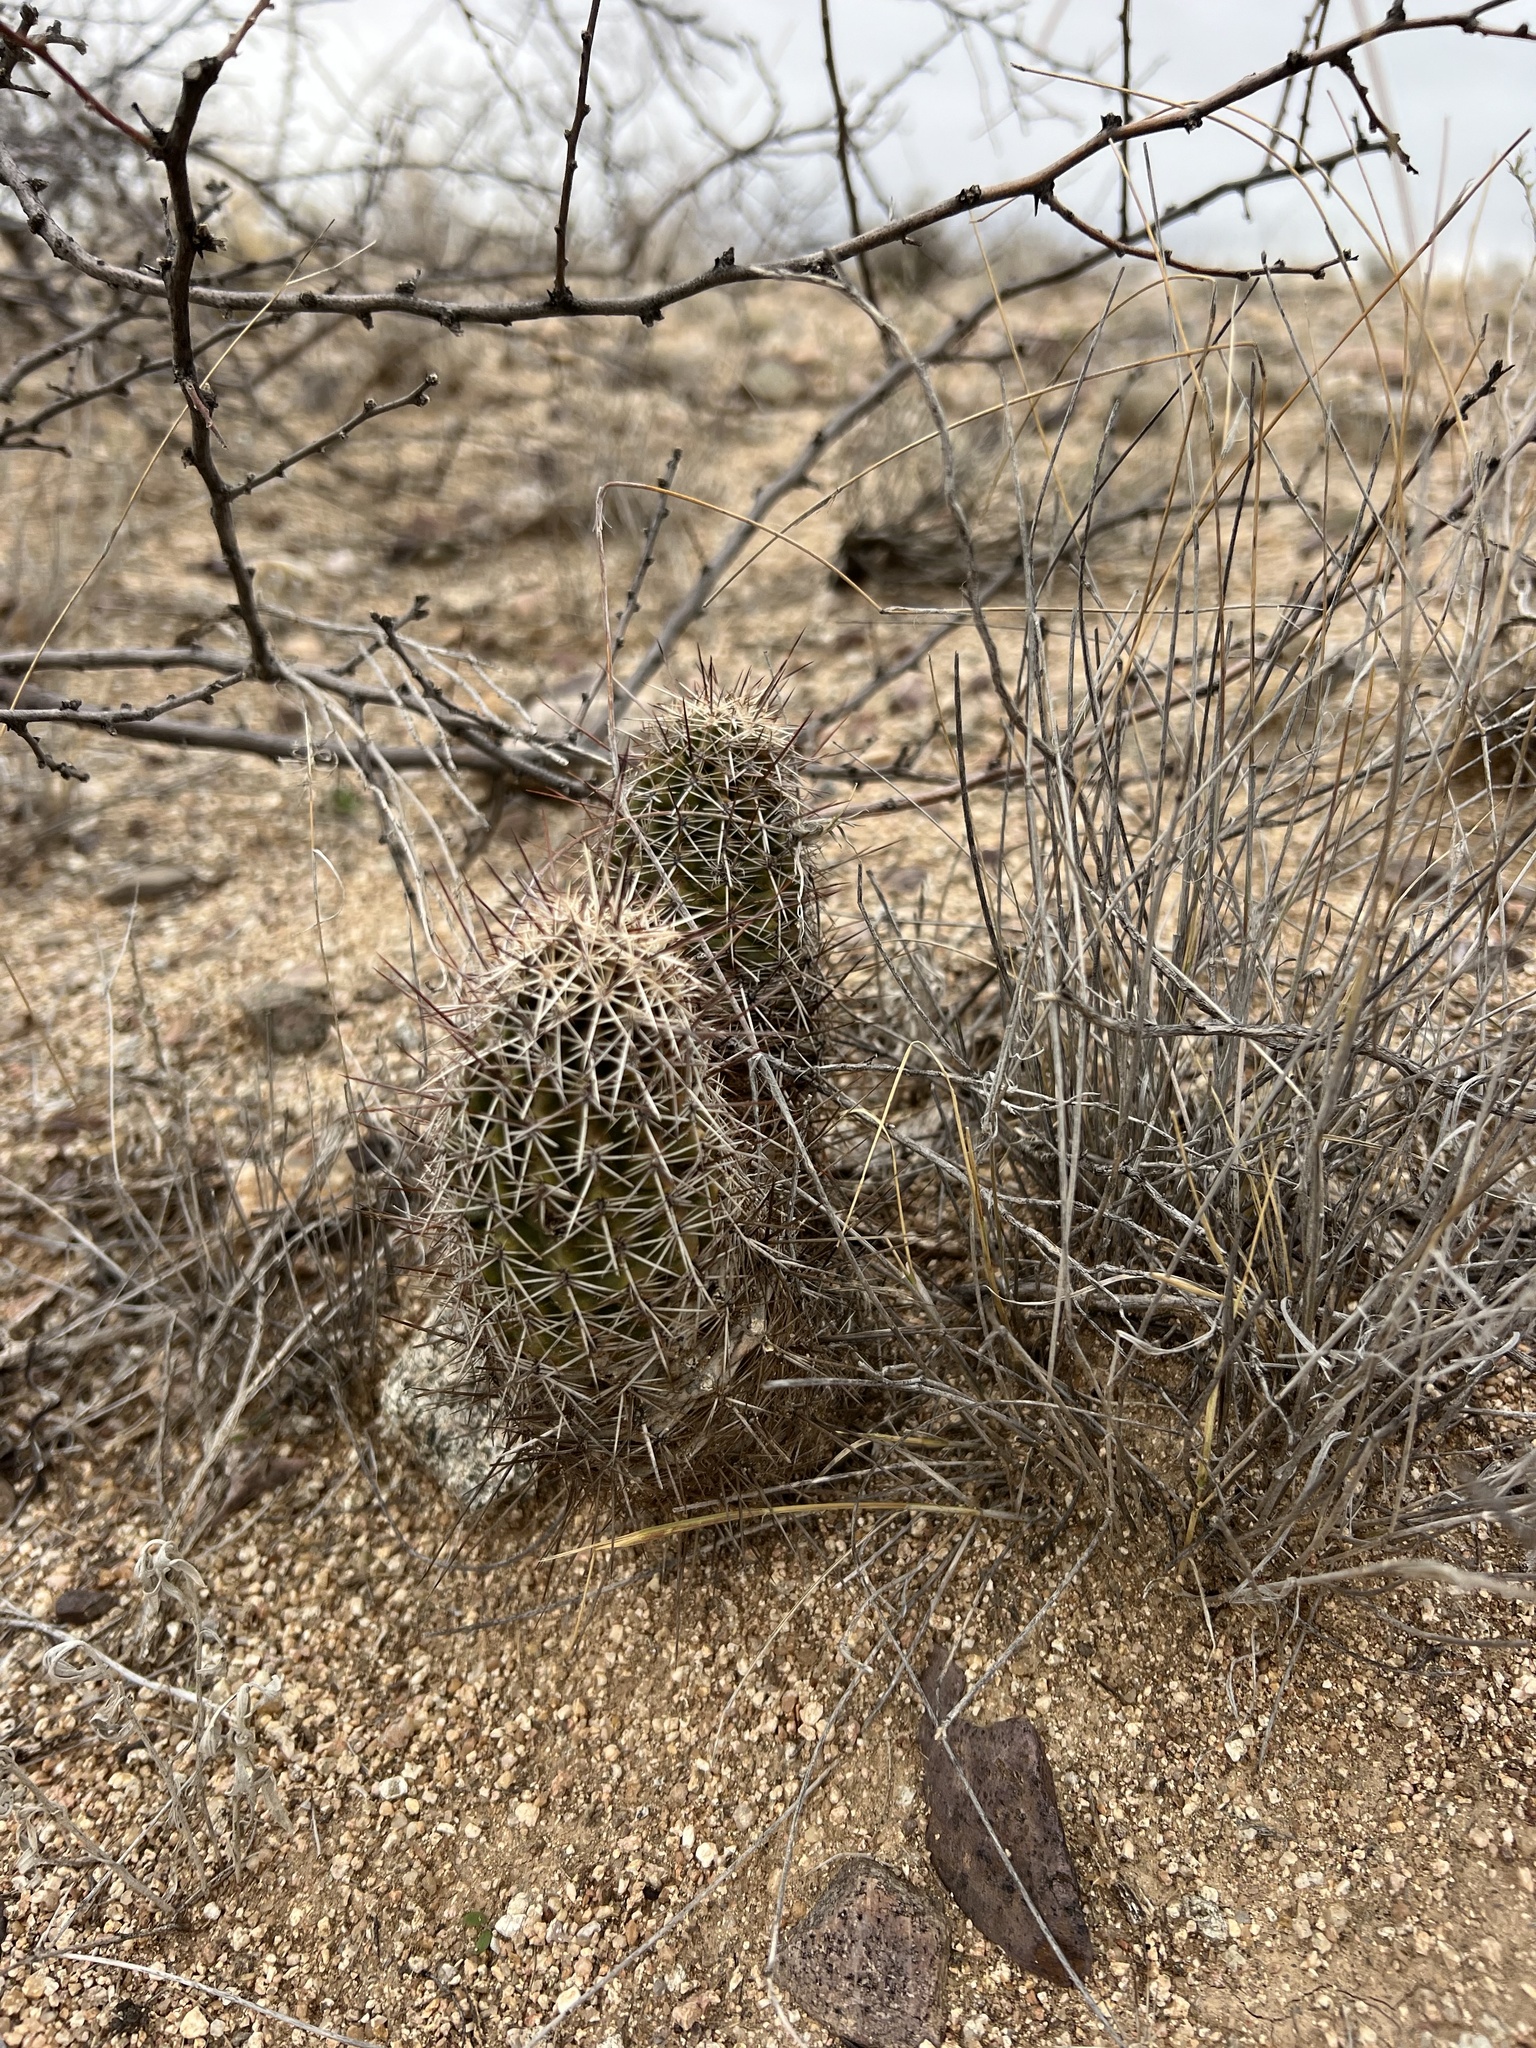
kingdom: Plantae
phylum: Tracheophyta
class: Magnoliopsida
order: Caryophyllales
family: Cactaceae
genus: Echinocereus
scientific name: Echinocereus fasciculatus
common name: Bundle hedgehog
